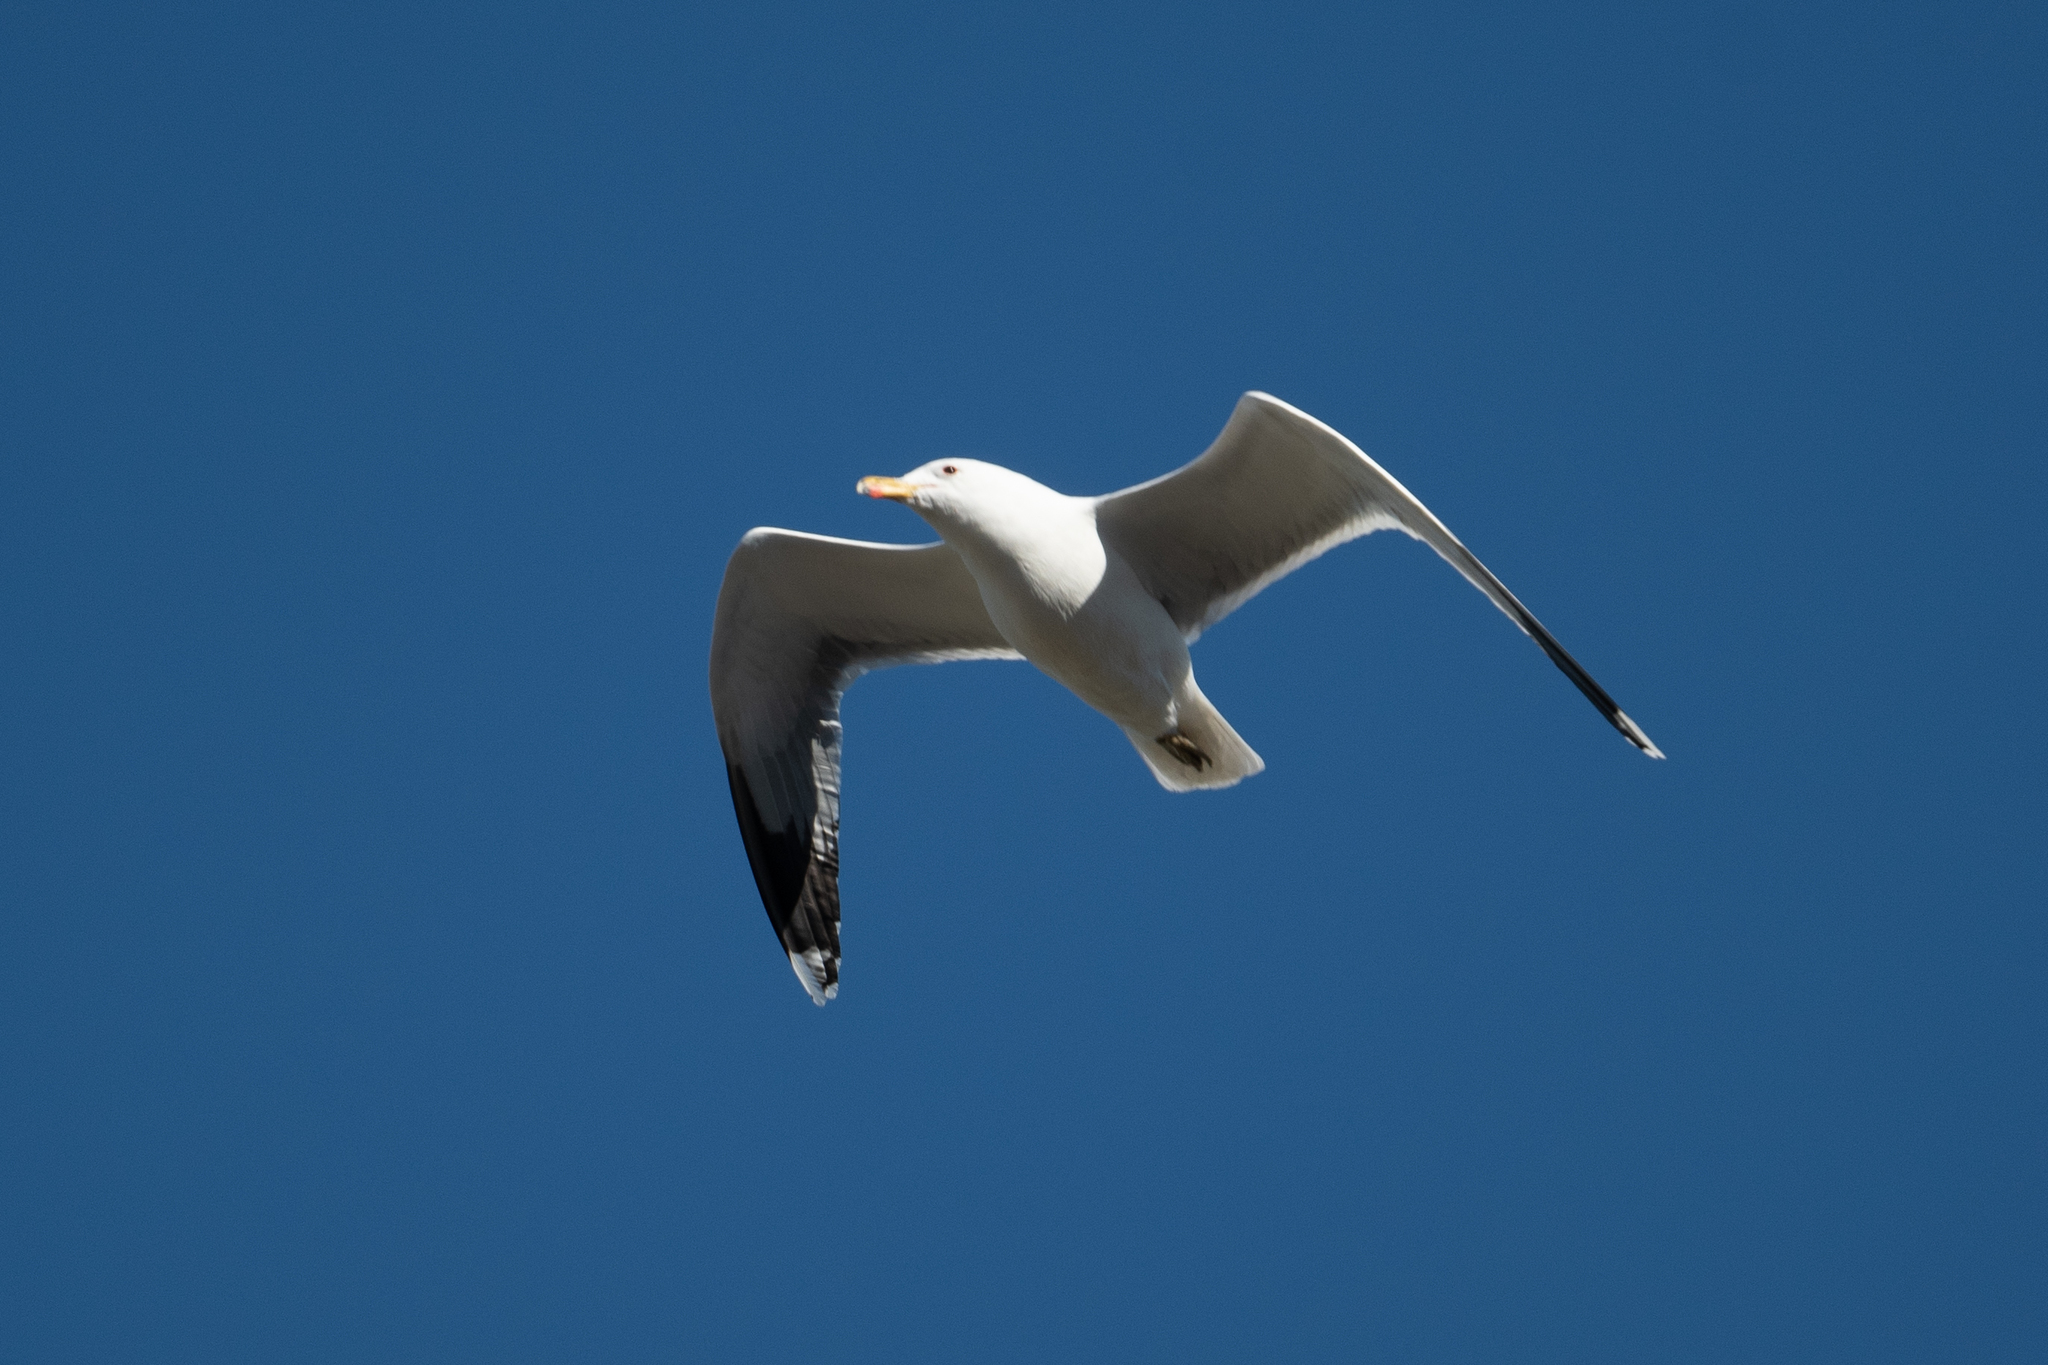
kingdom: Animalia
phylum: Chordata
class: Aves
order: Charadriiformes
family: Laridae
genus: Larus
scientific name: Larus californicus
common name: California gull
